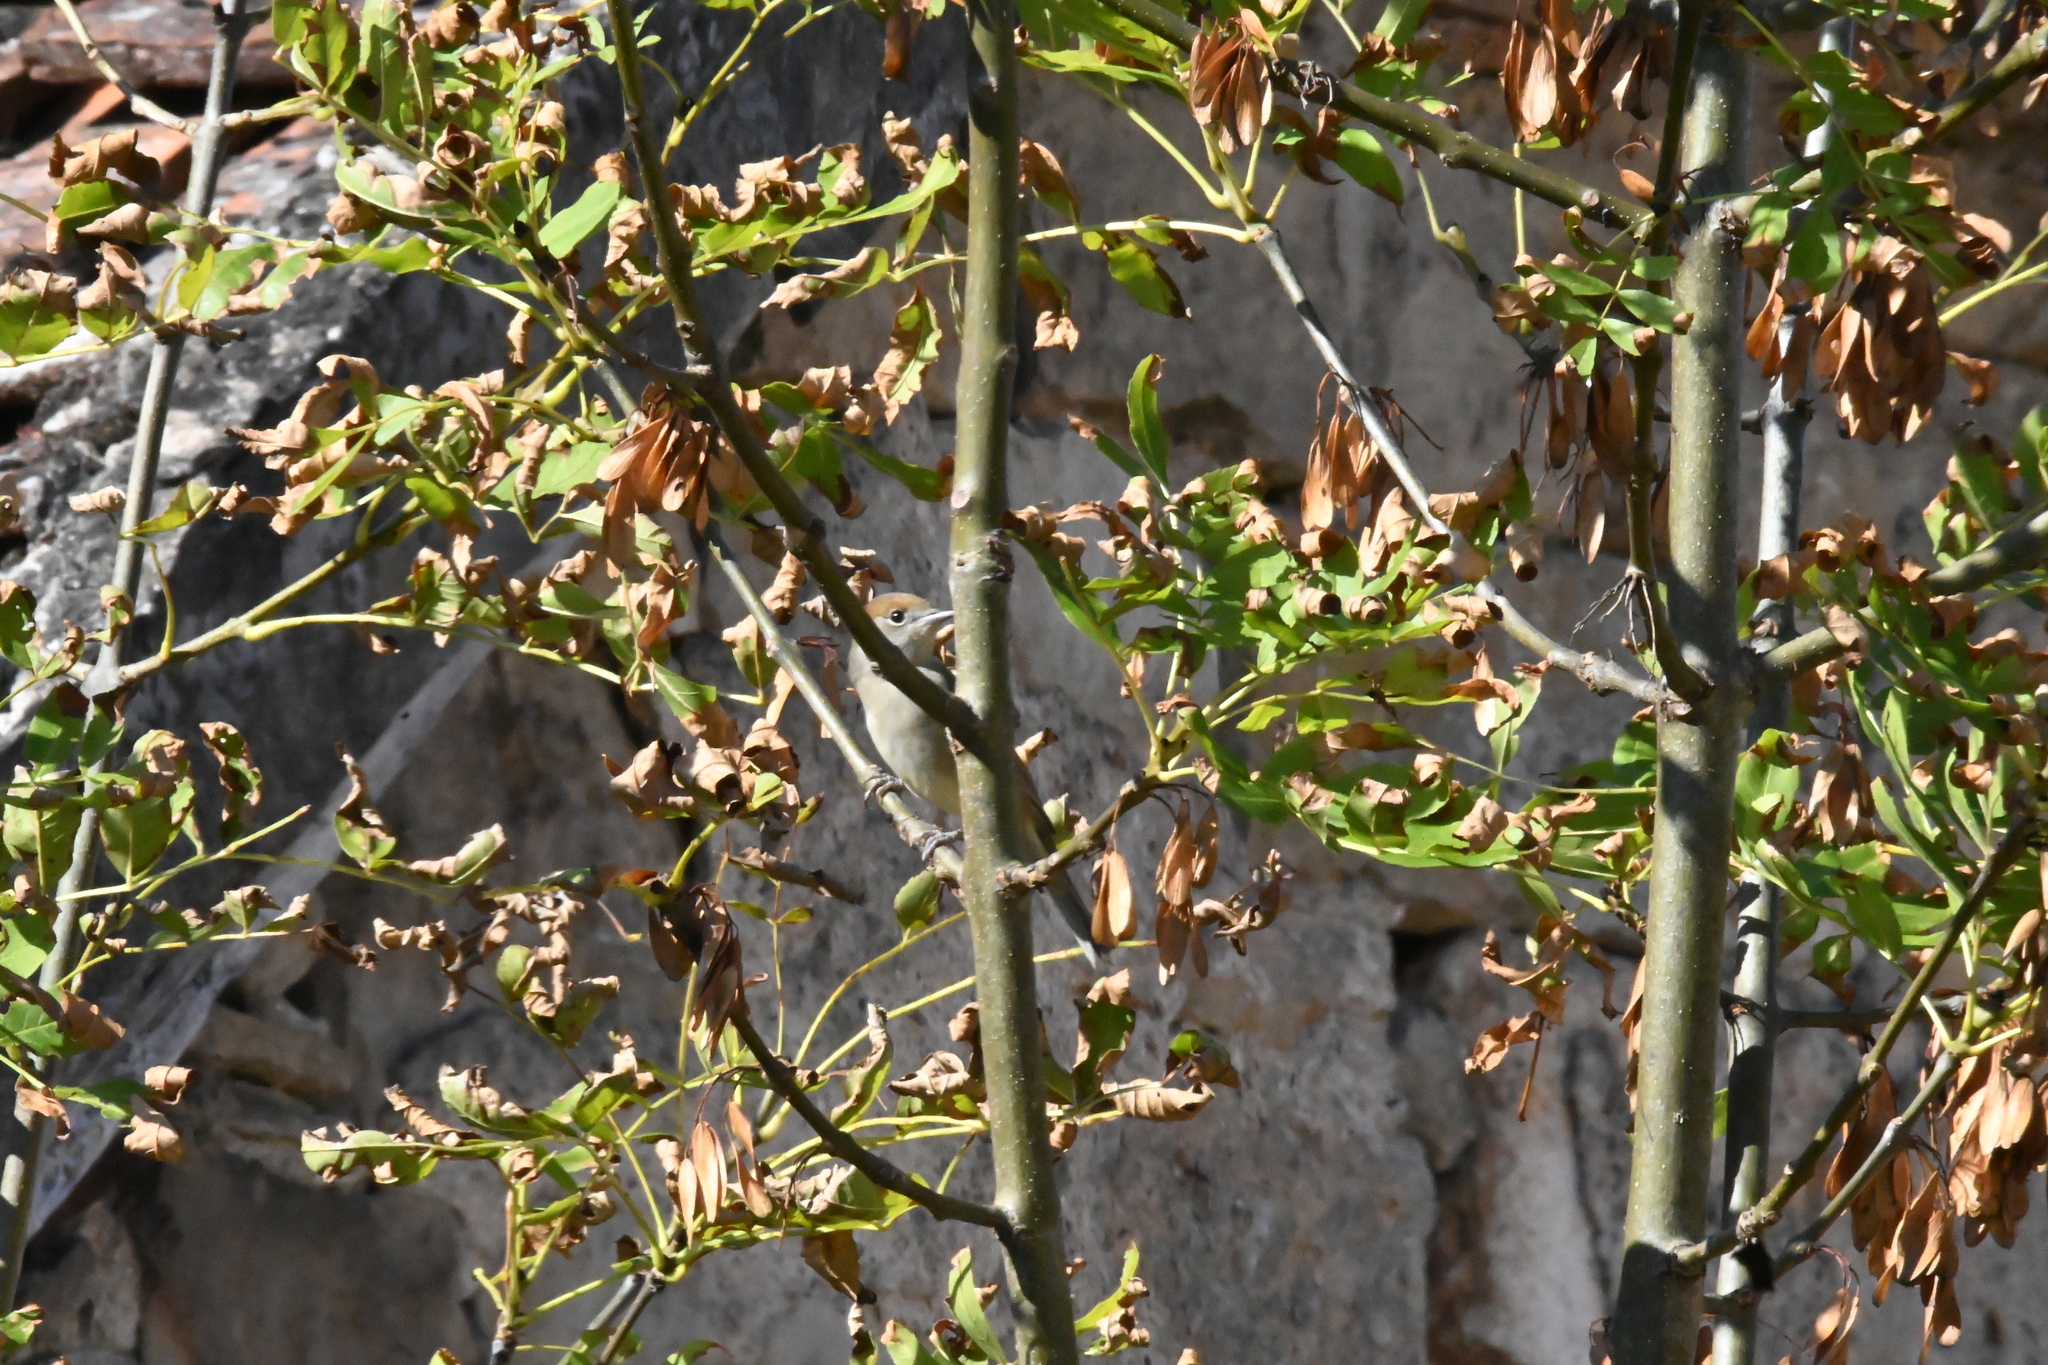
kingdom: Animalia
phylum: Chordata
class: Aves
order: Passeriformes
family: Sylviidae
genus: Sylvia
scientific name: Sylvia atricapilla
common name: Eurasian blackcap
